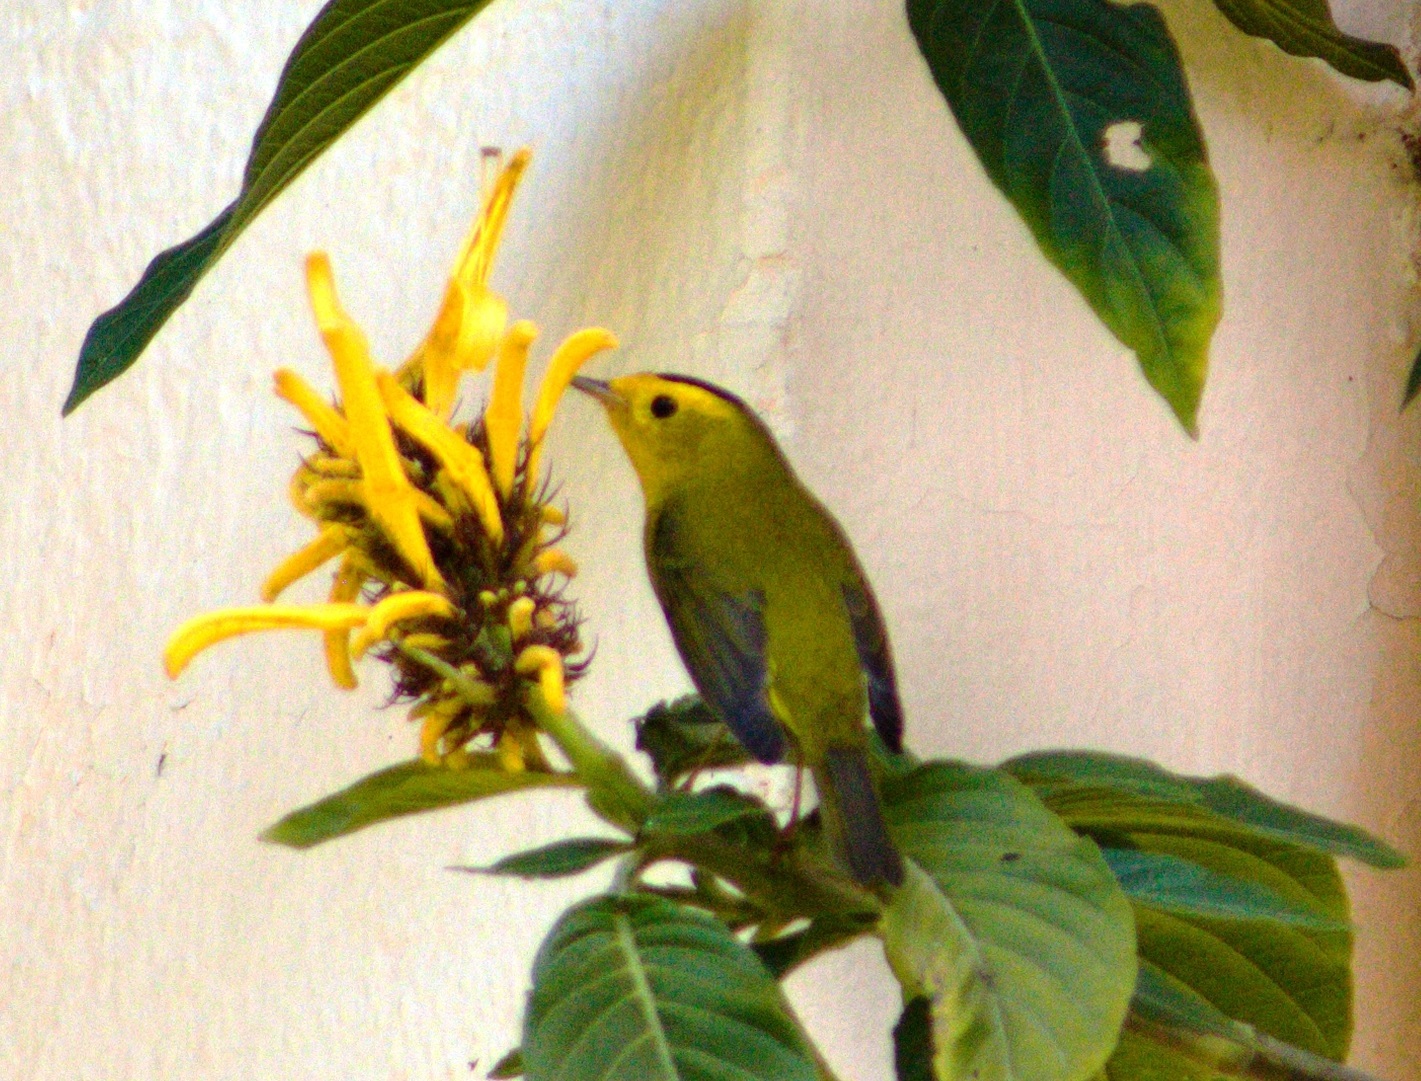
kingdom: Animalia
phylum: Chordata
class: Aves
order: Passeriformes
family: Parulidae
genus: Cardellina
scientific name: Cardellina pusilla
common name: Wilson's warbler
